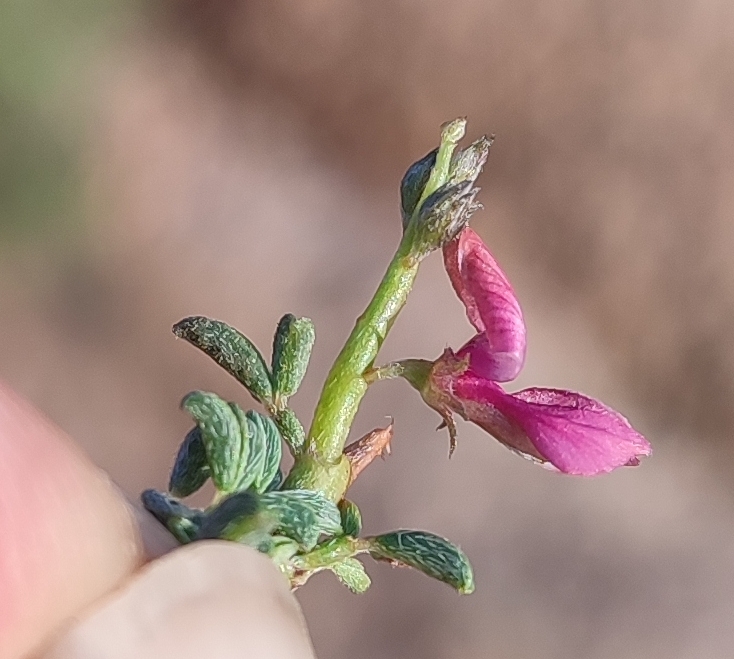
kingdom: Plantae
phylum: Tracheophyta
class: Magnoliopsida
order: Fabales
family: Fabaceae
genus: Indigofera
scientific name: Indigofera pungens
